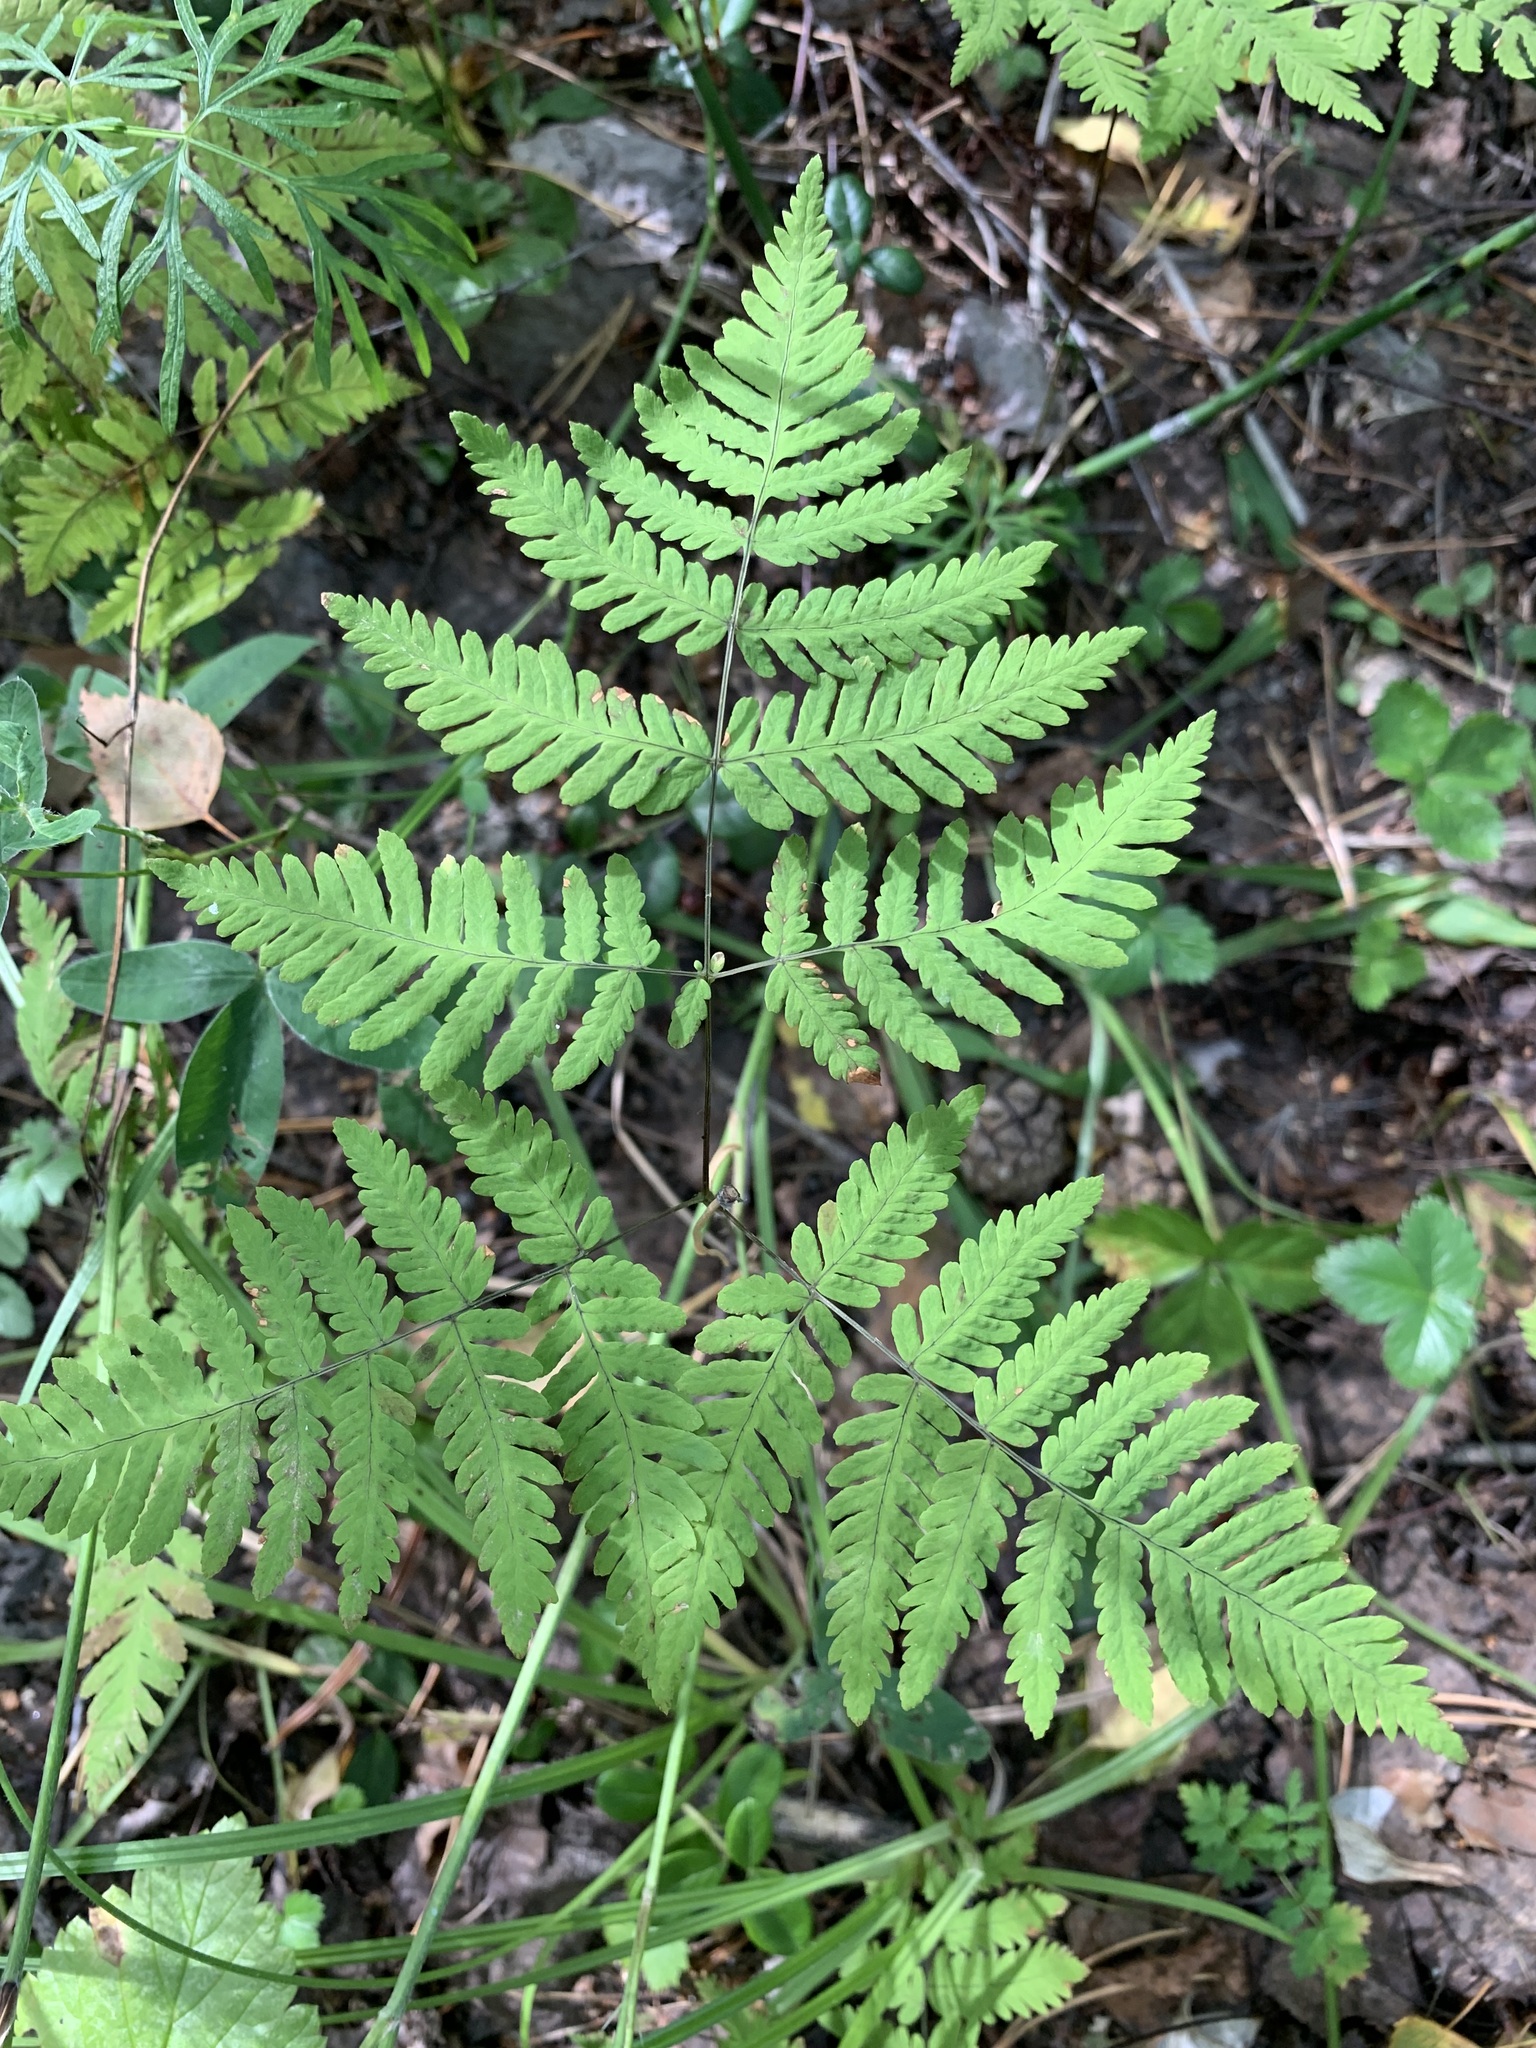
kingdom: Plantae
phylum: Tracheophyta
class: Polypodiopsida
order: Polypodiales
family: Cystopteridaceae
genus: Gymnocarpium
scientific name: Gymnocarpium dryopteris
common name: Oak fern
